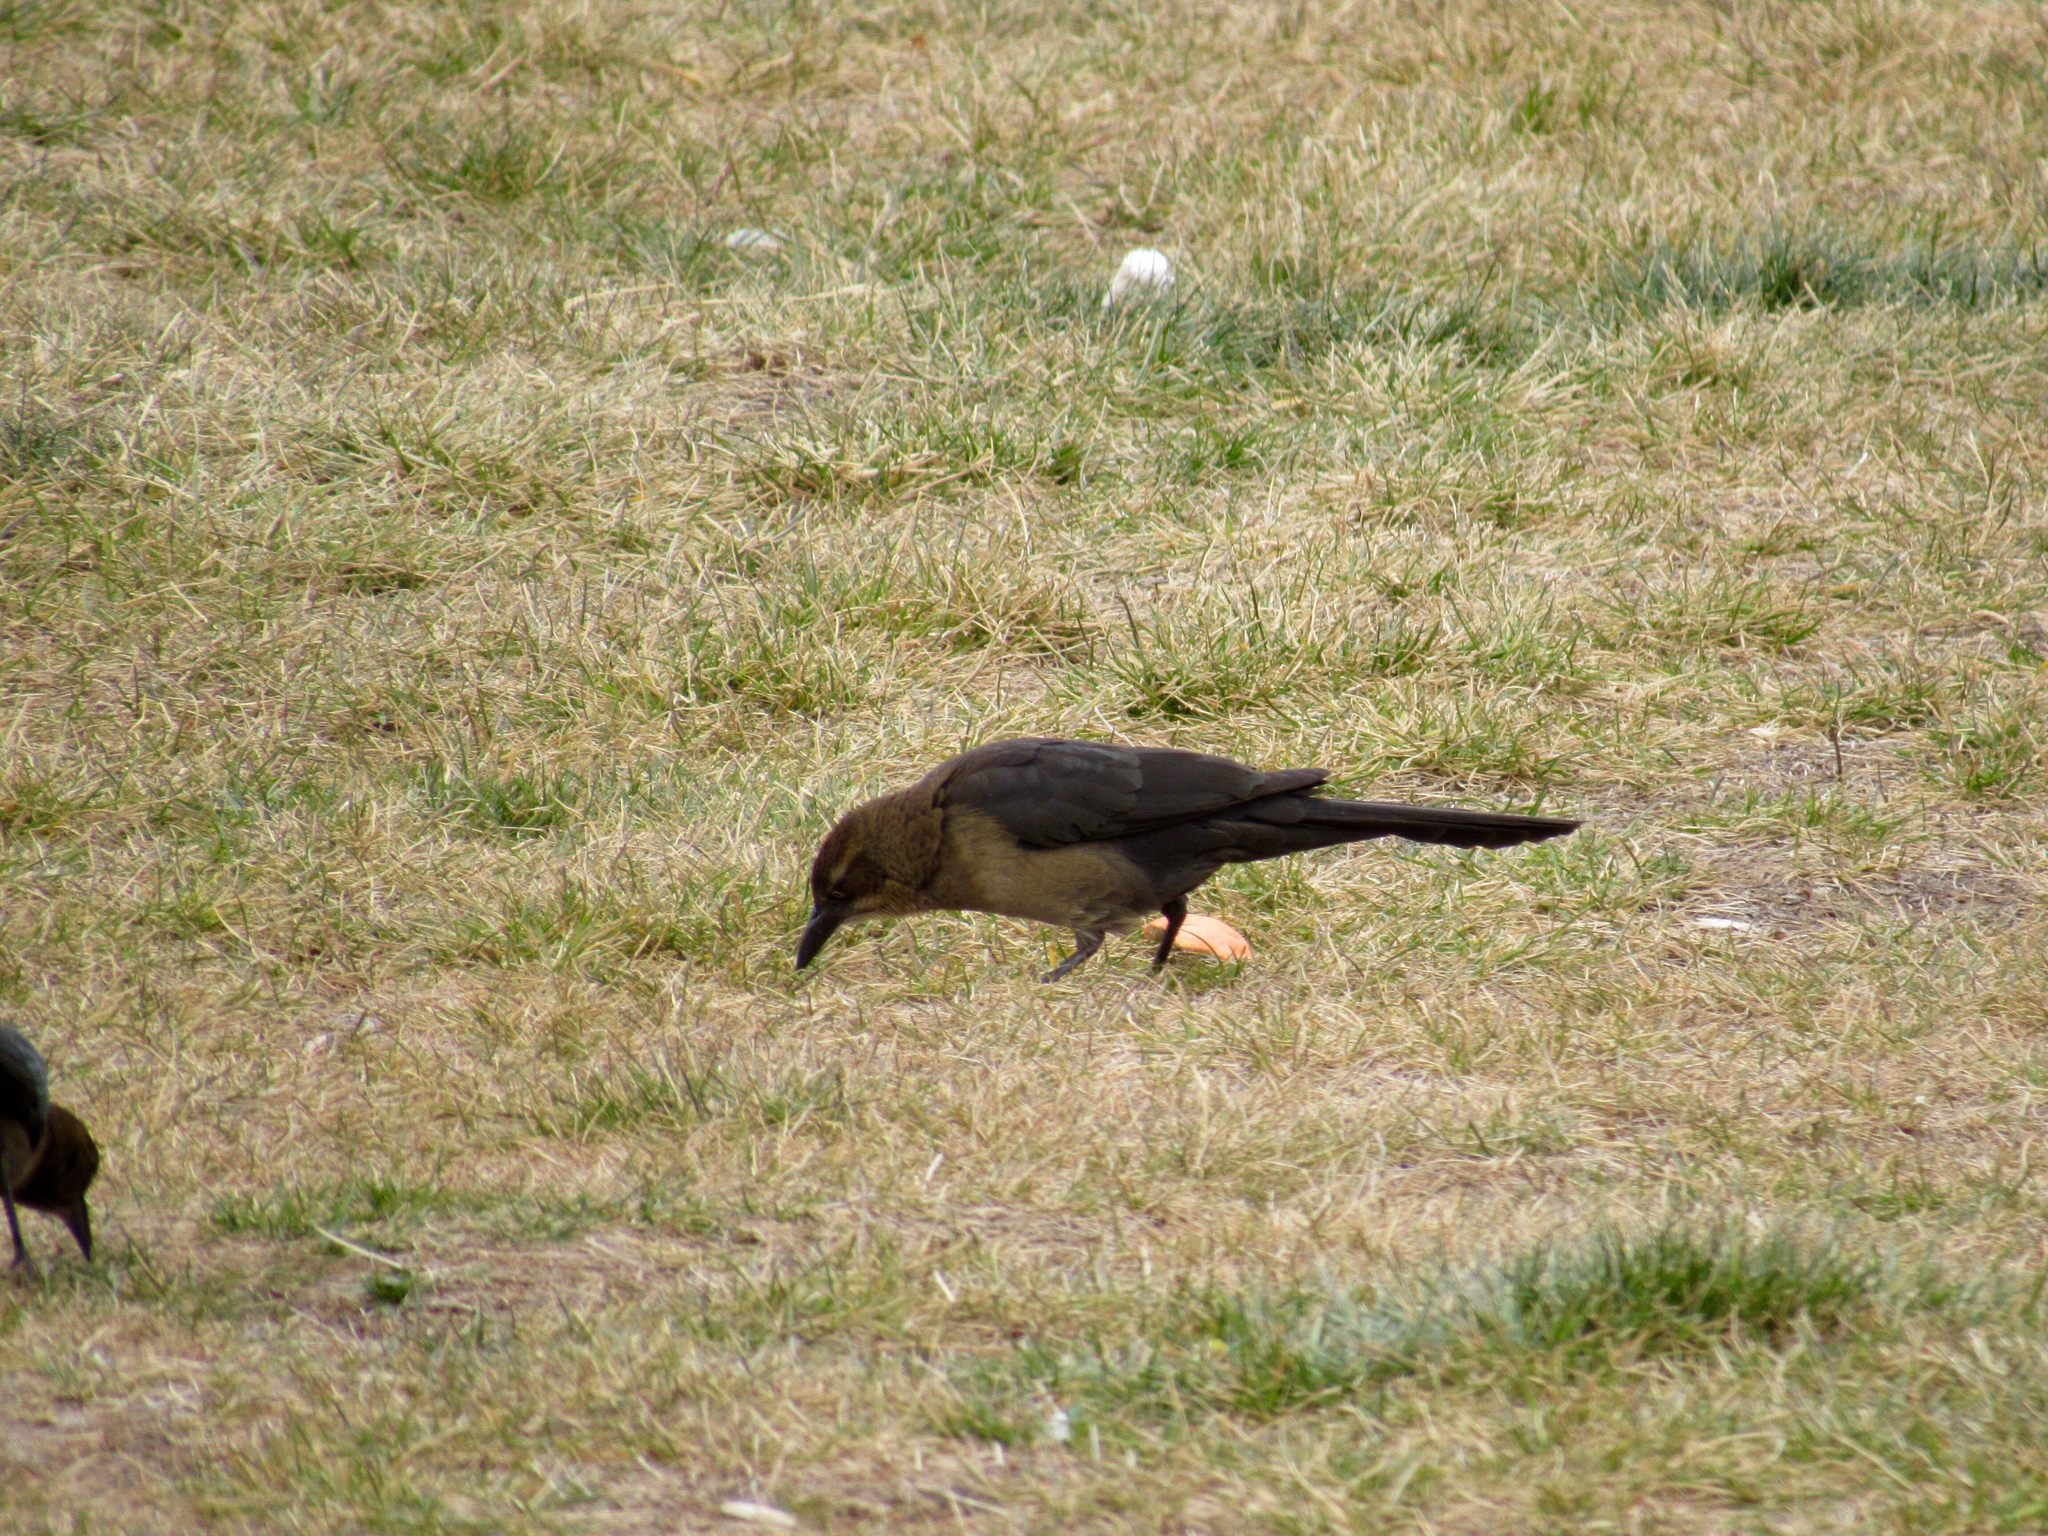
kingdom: Animalia
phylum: Chordata
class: Aves
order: Passeriformes
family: Icteridae
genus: Quiscalus
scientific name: Quiscalus mexicanus
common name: Great-tailed grackle
